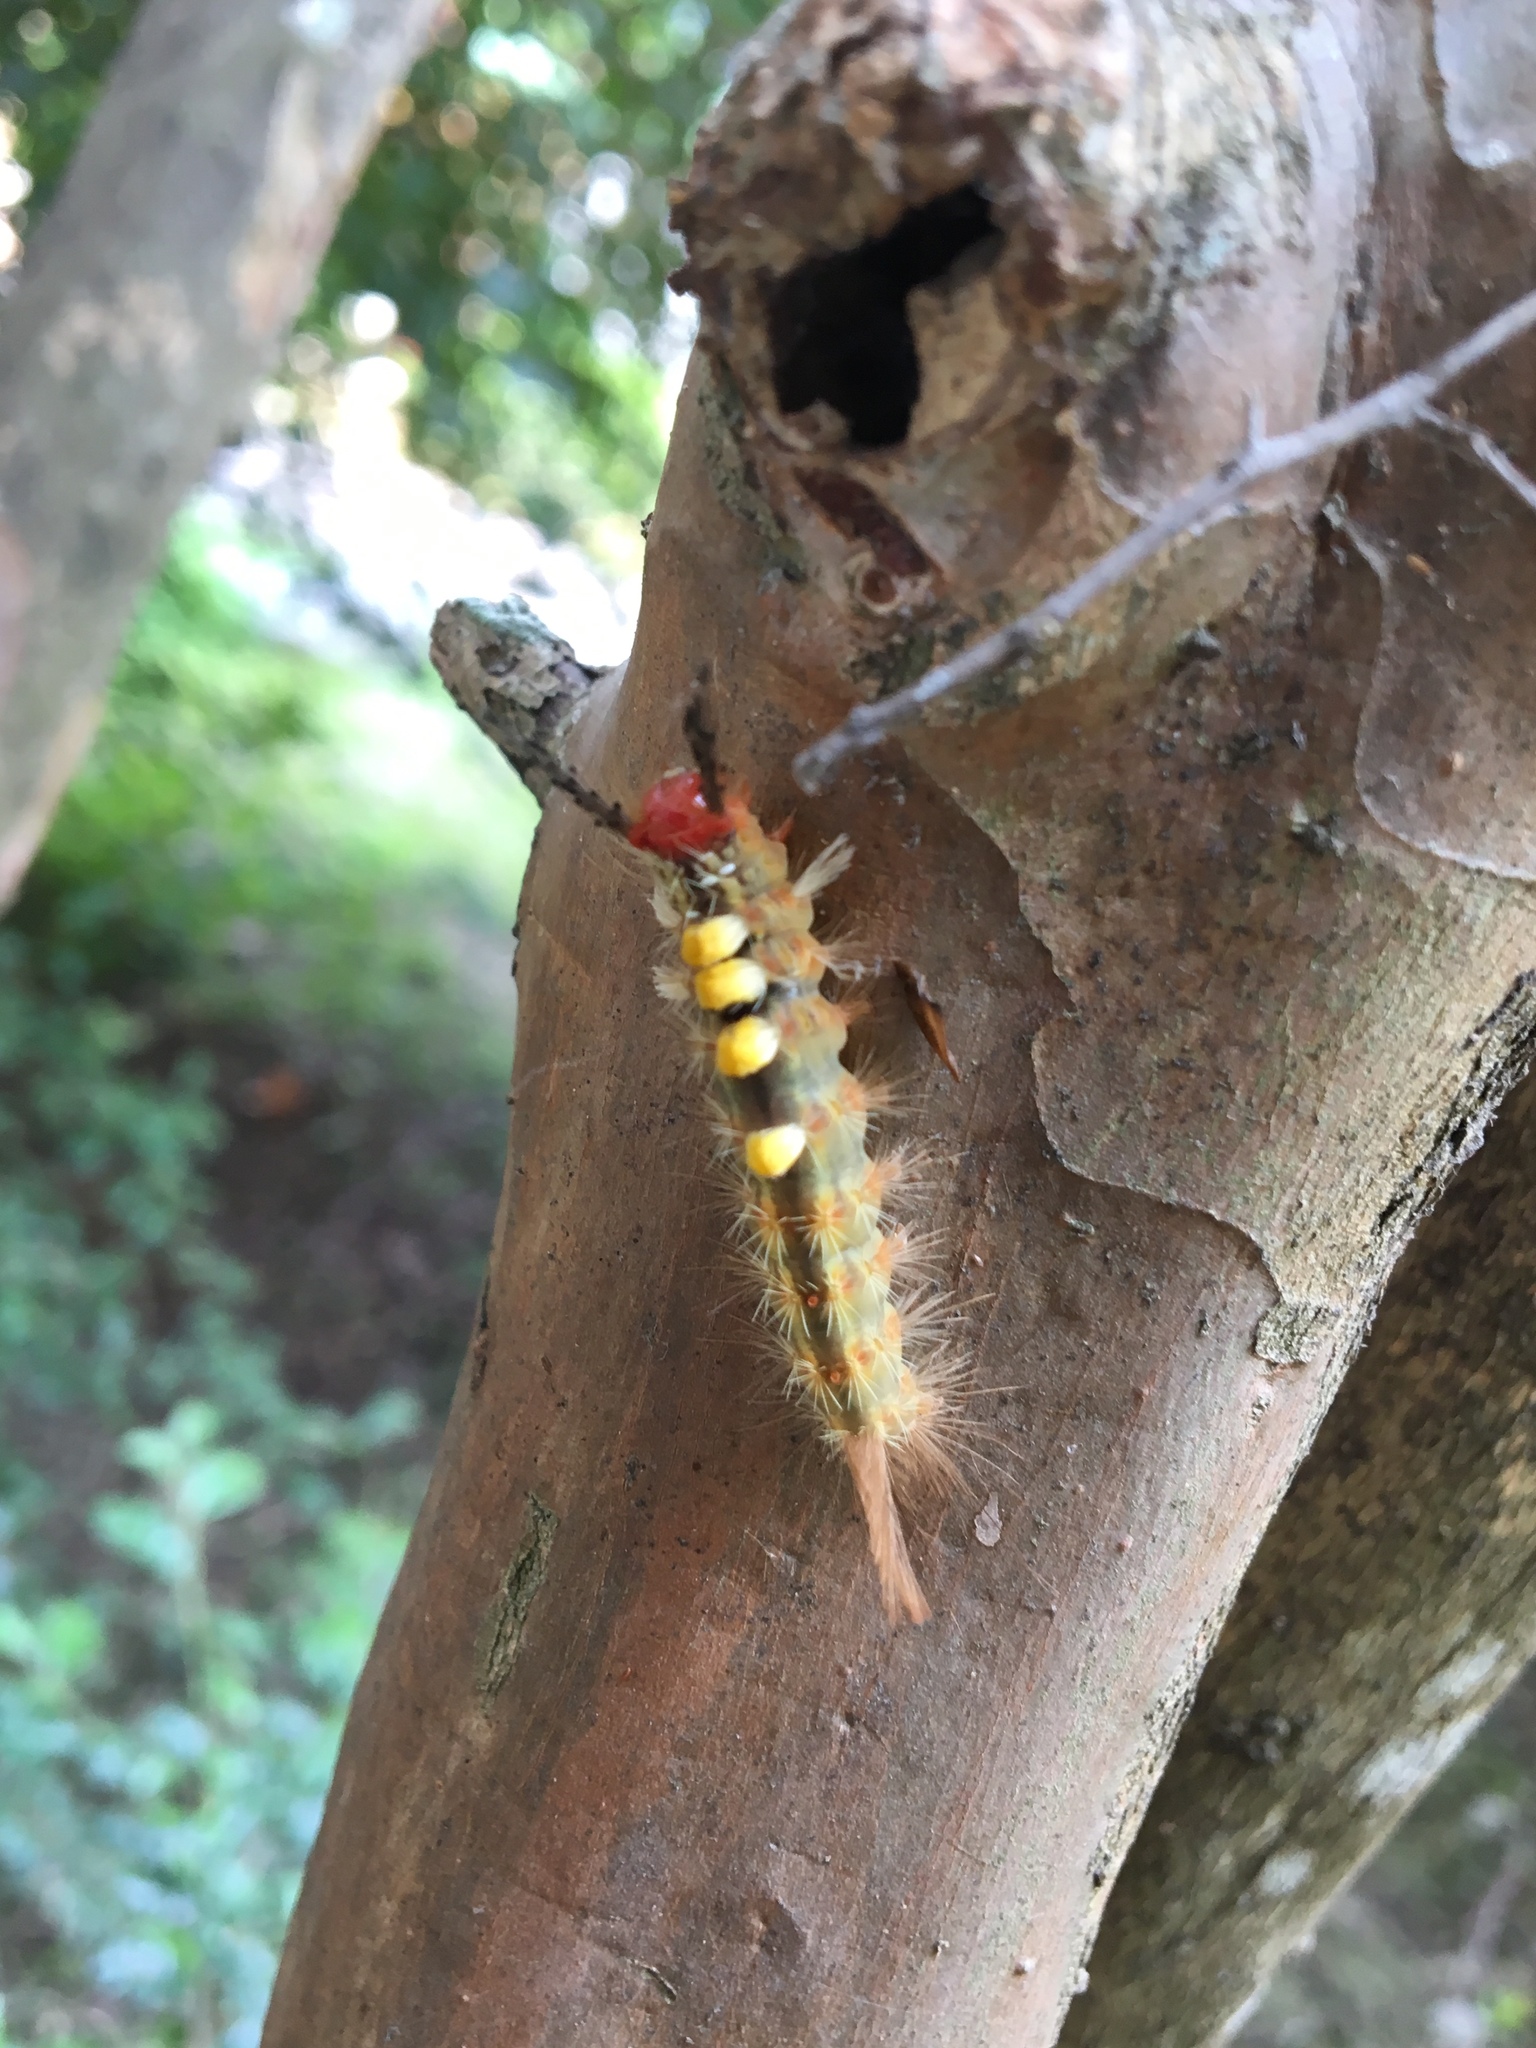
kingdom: Animalia
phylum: Arthropoda
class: Insecta
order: Lepidoptera
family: Erebidae
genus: Orgyia
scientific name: Orgyia postica
